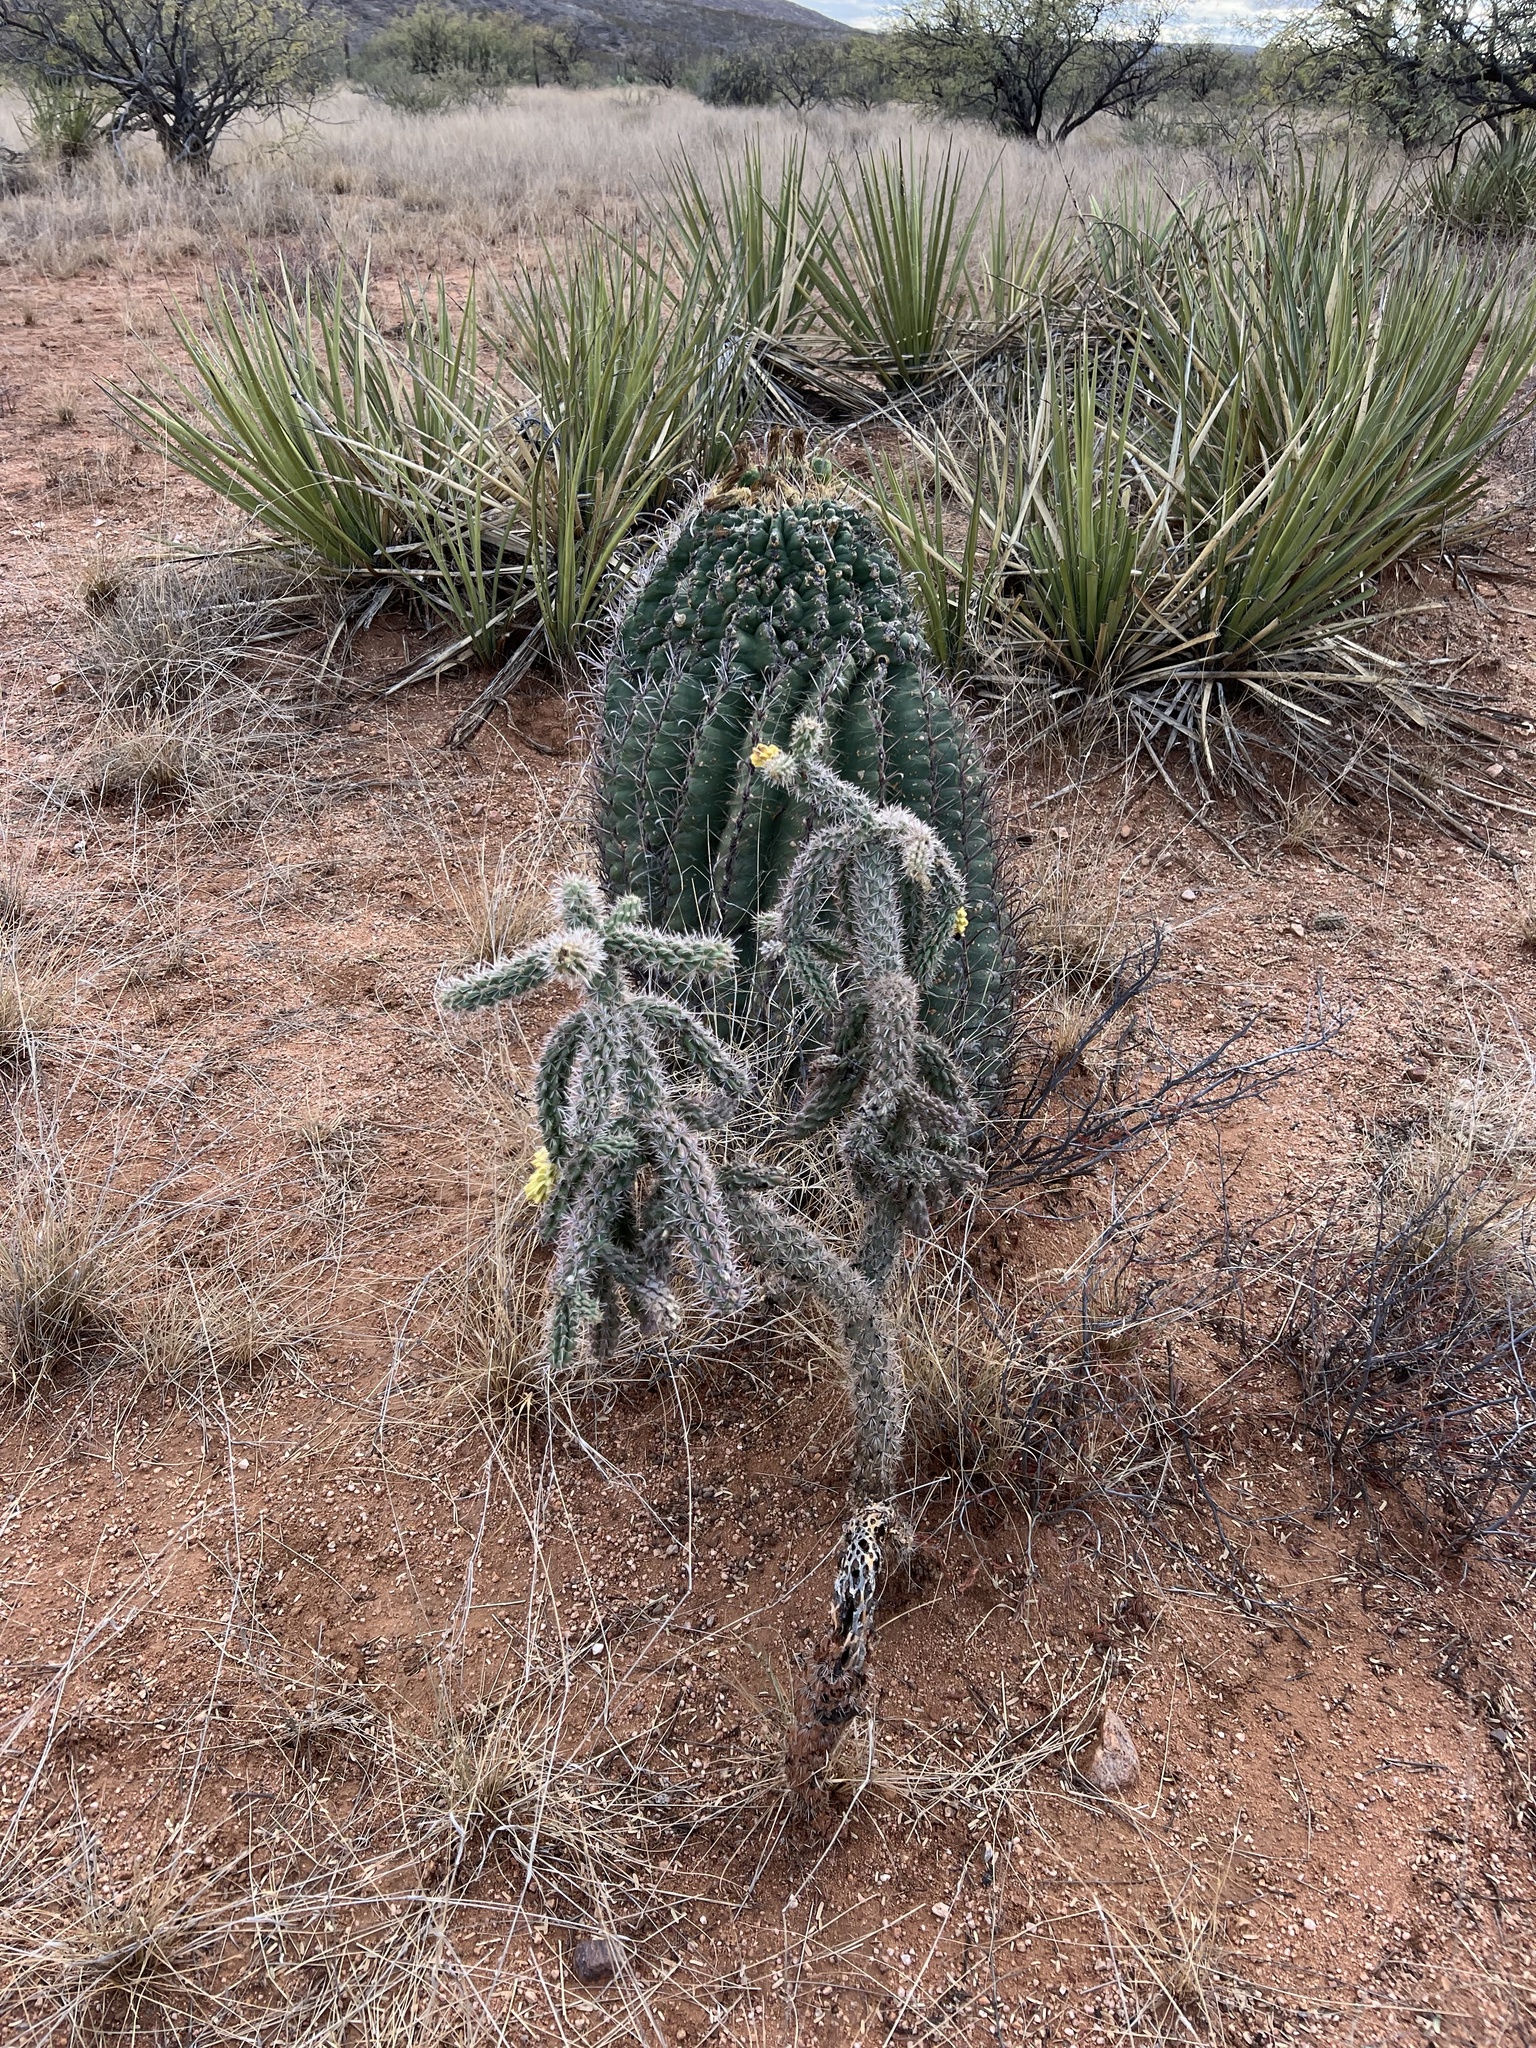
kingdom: Plantae
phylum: Tracheophyta
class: Magnoliopsida
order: Caryophyllales
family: Cactaceae
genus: Cylindropuntia
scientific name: Cylindropuntia imbricata
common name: Candelabrum cactus
